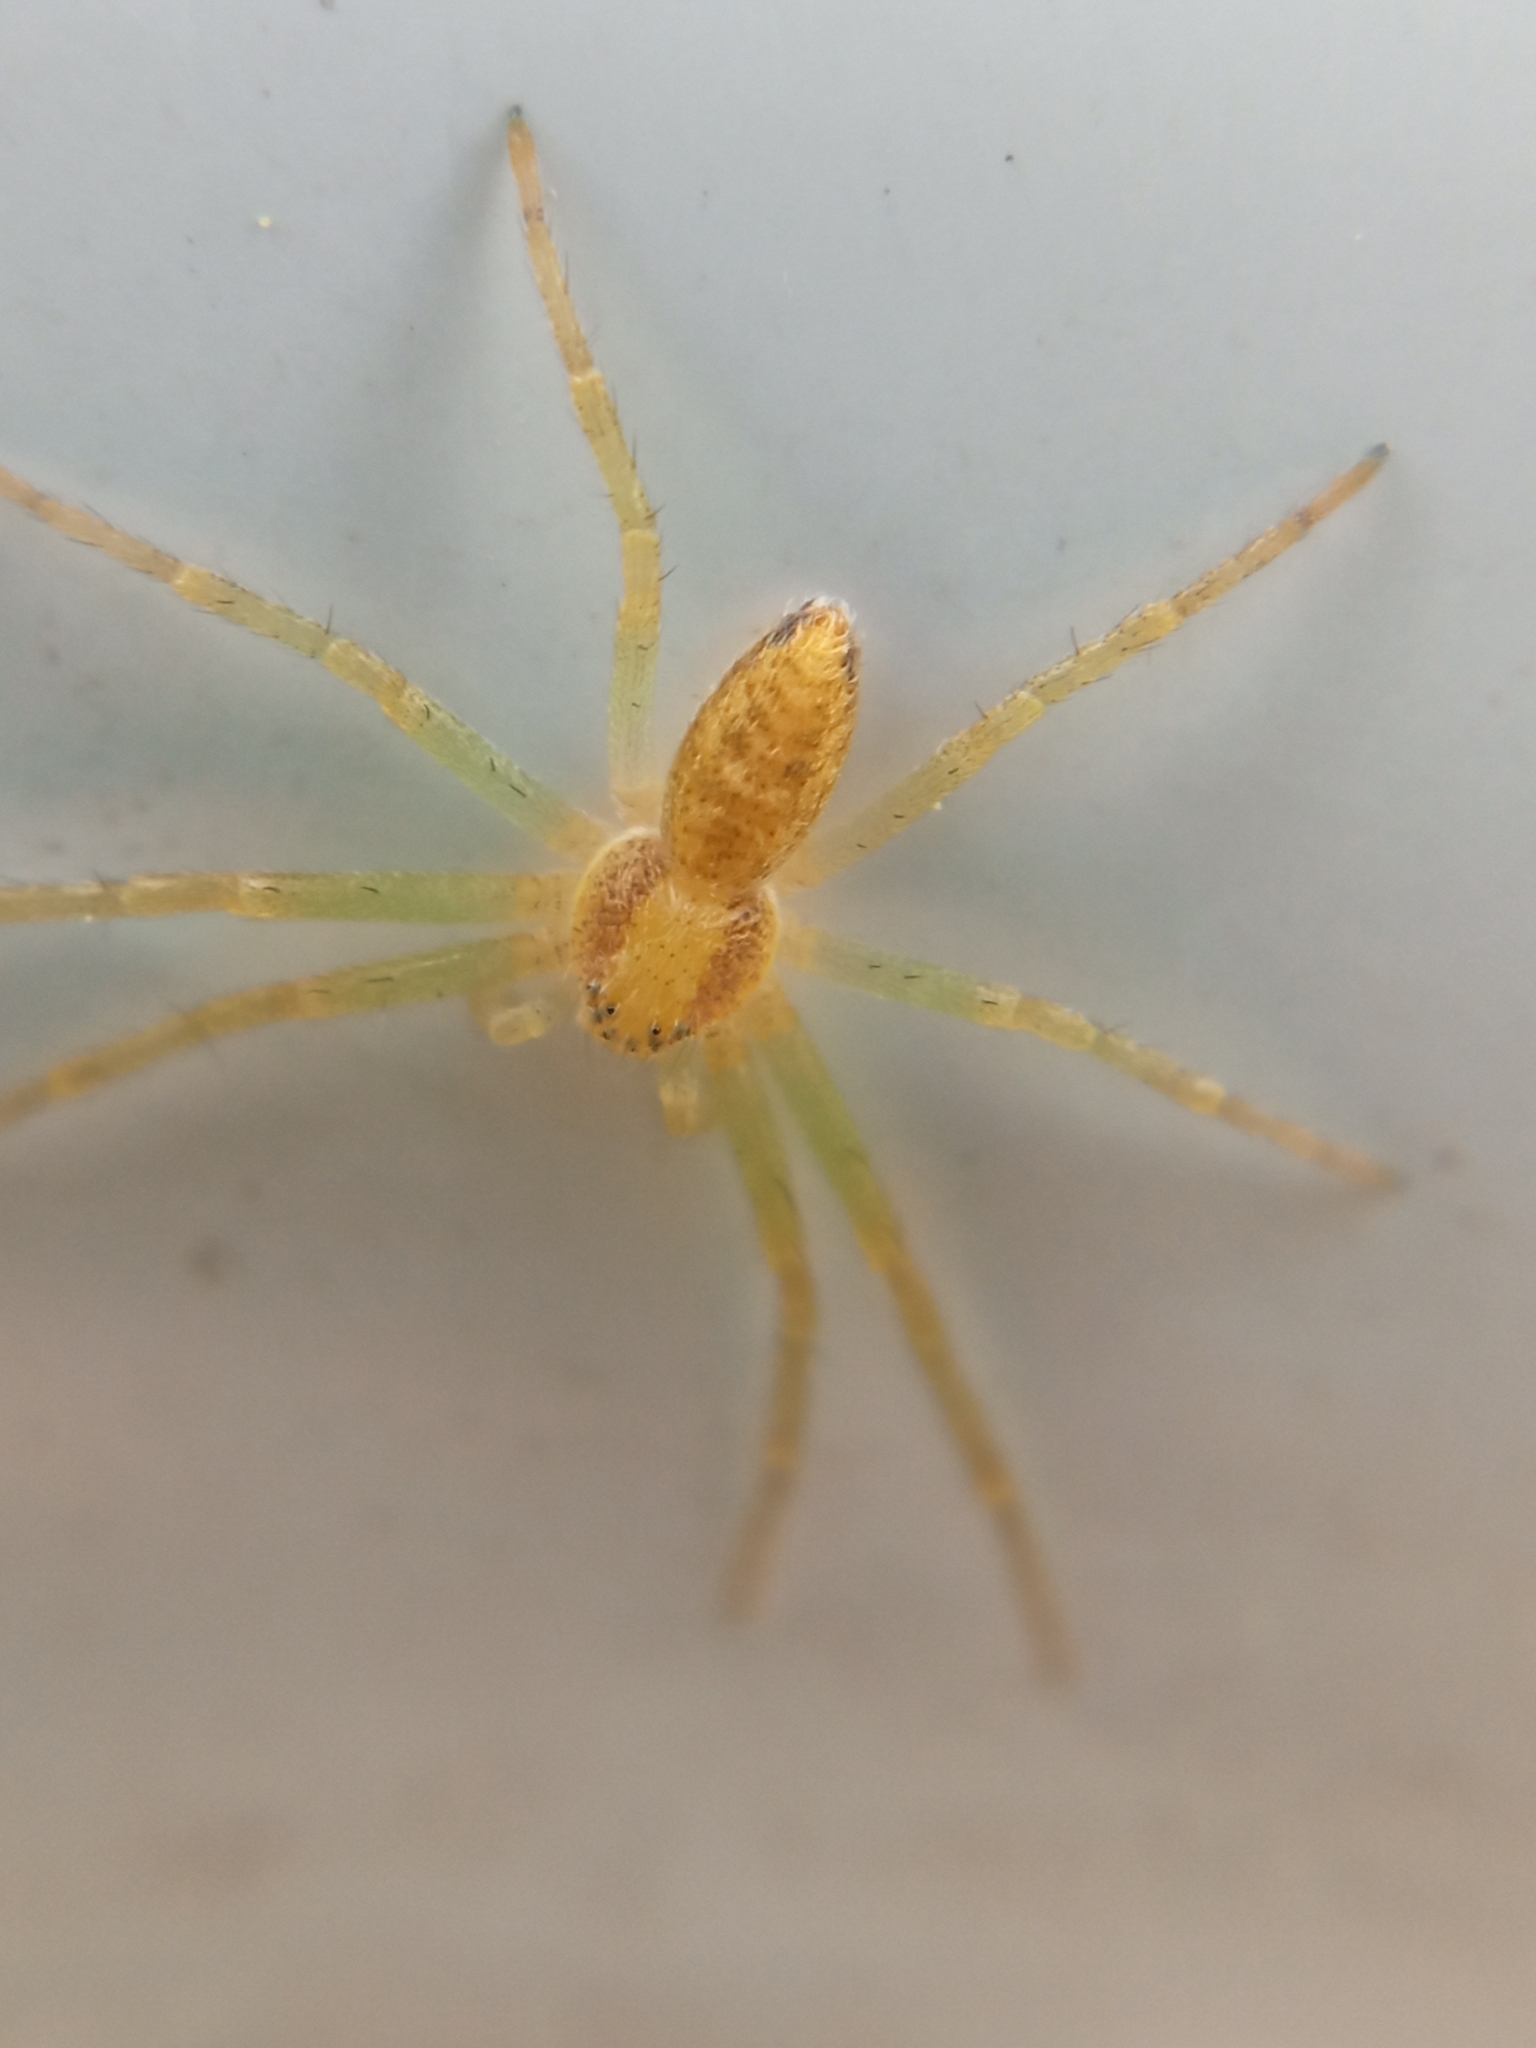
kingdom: Animalia
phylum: Arthropoda
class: Arachnida
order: Araneae
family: Philodromidae
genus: Philodromus
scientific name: Philodromus
